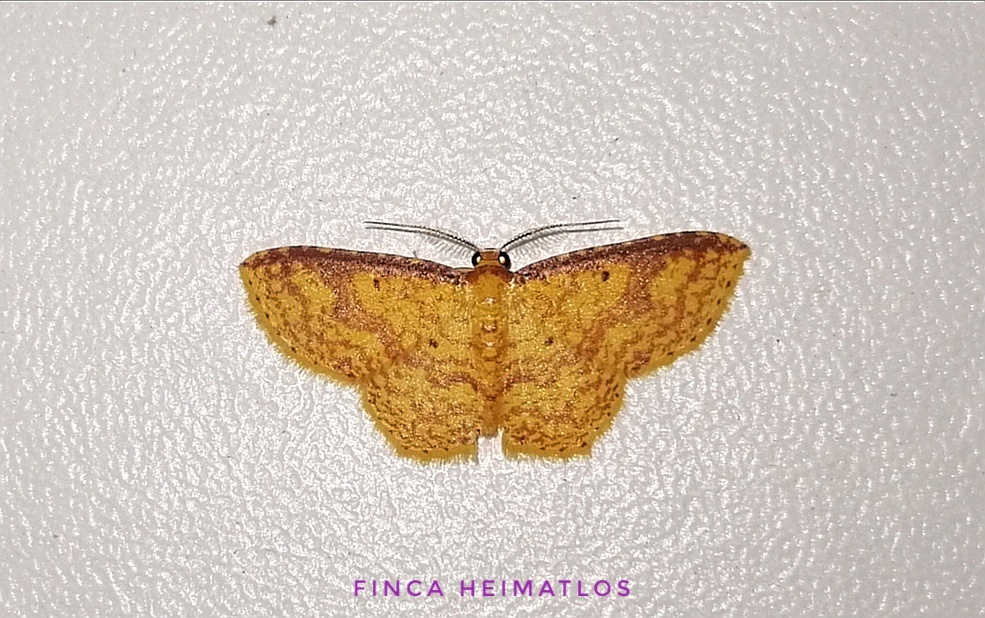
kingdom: Animalia
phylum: Arthropoda
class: Insecta
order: Lepidoptera
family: Geometridae
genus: Eois
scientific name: Eois dryope
